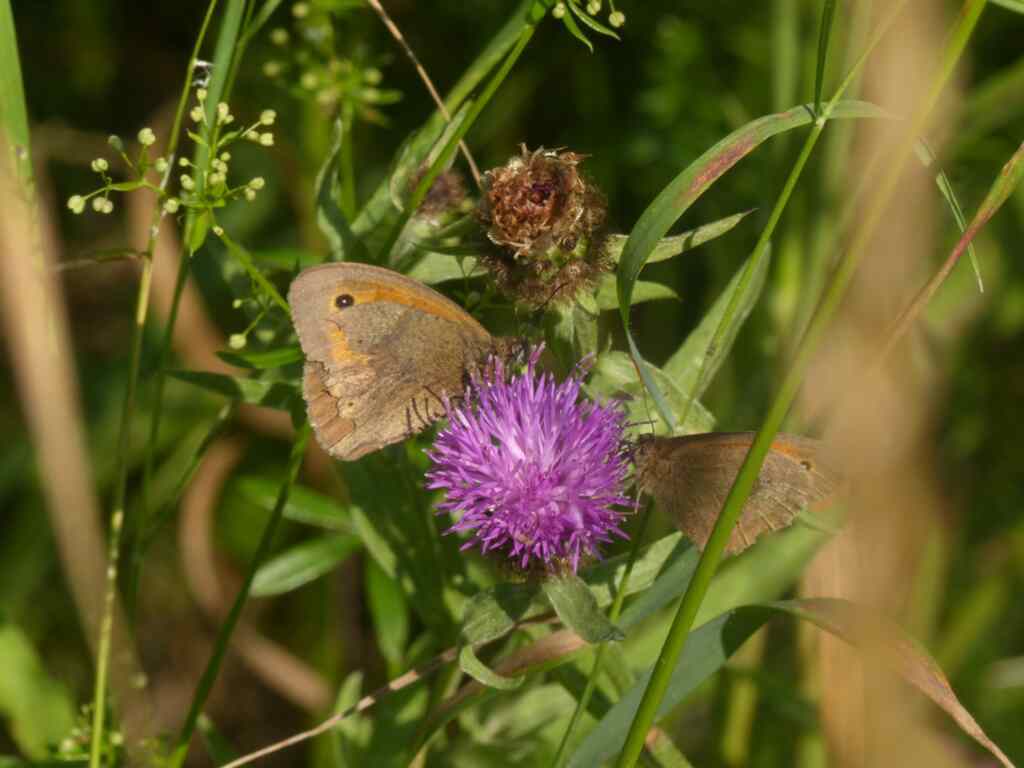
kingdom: Animalia
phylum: Arthropoda
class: Insecta
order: Lepidoptera
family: Nymphalidae
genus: Maniola
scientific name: Maniola jurtina
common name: Meadow brown
